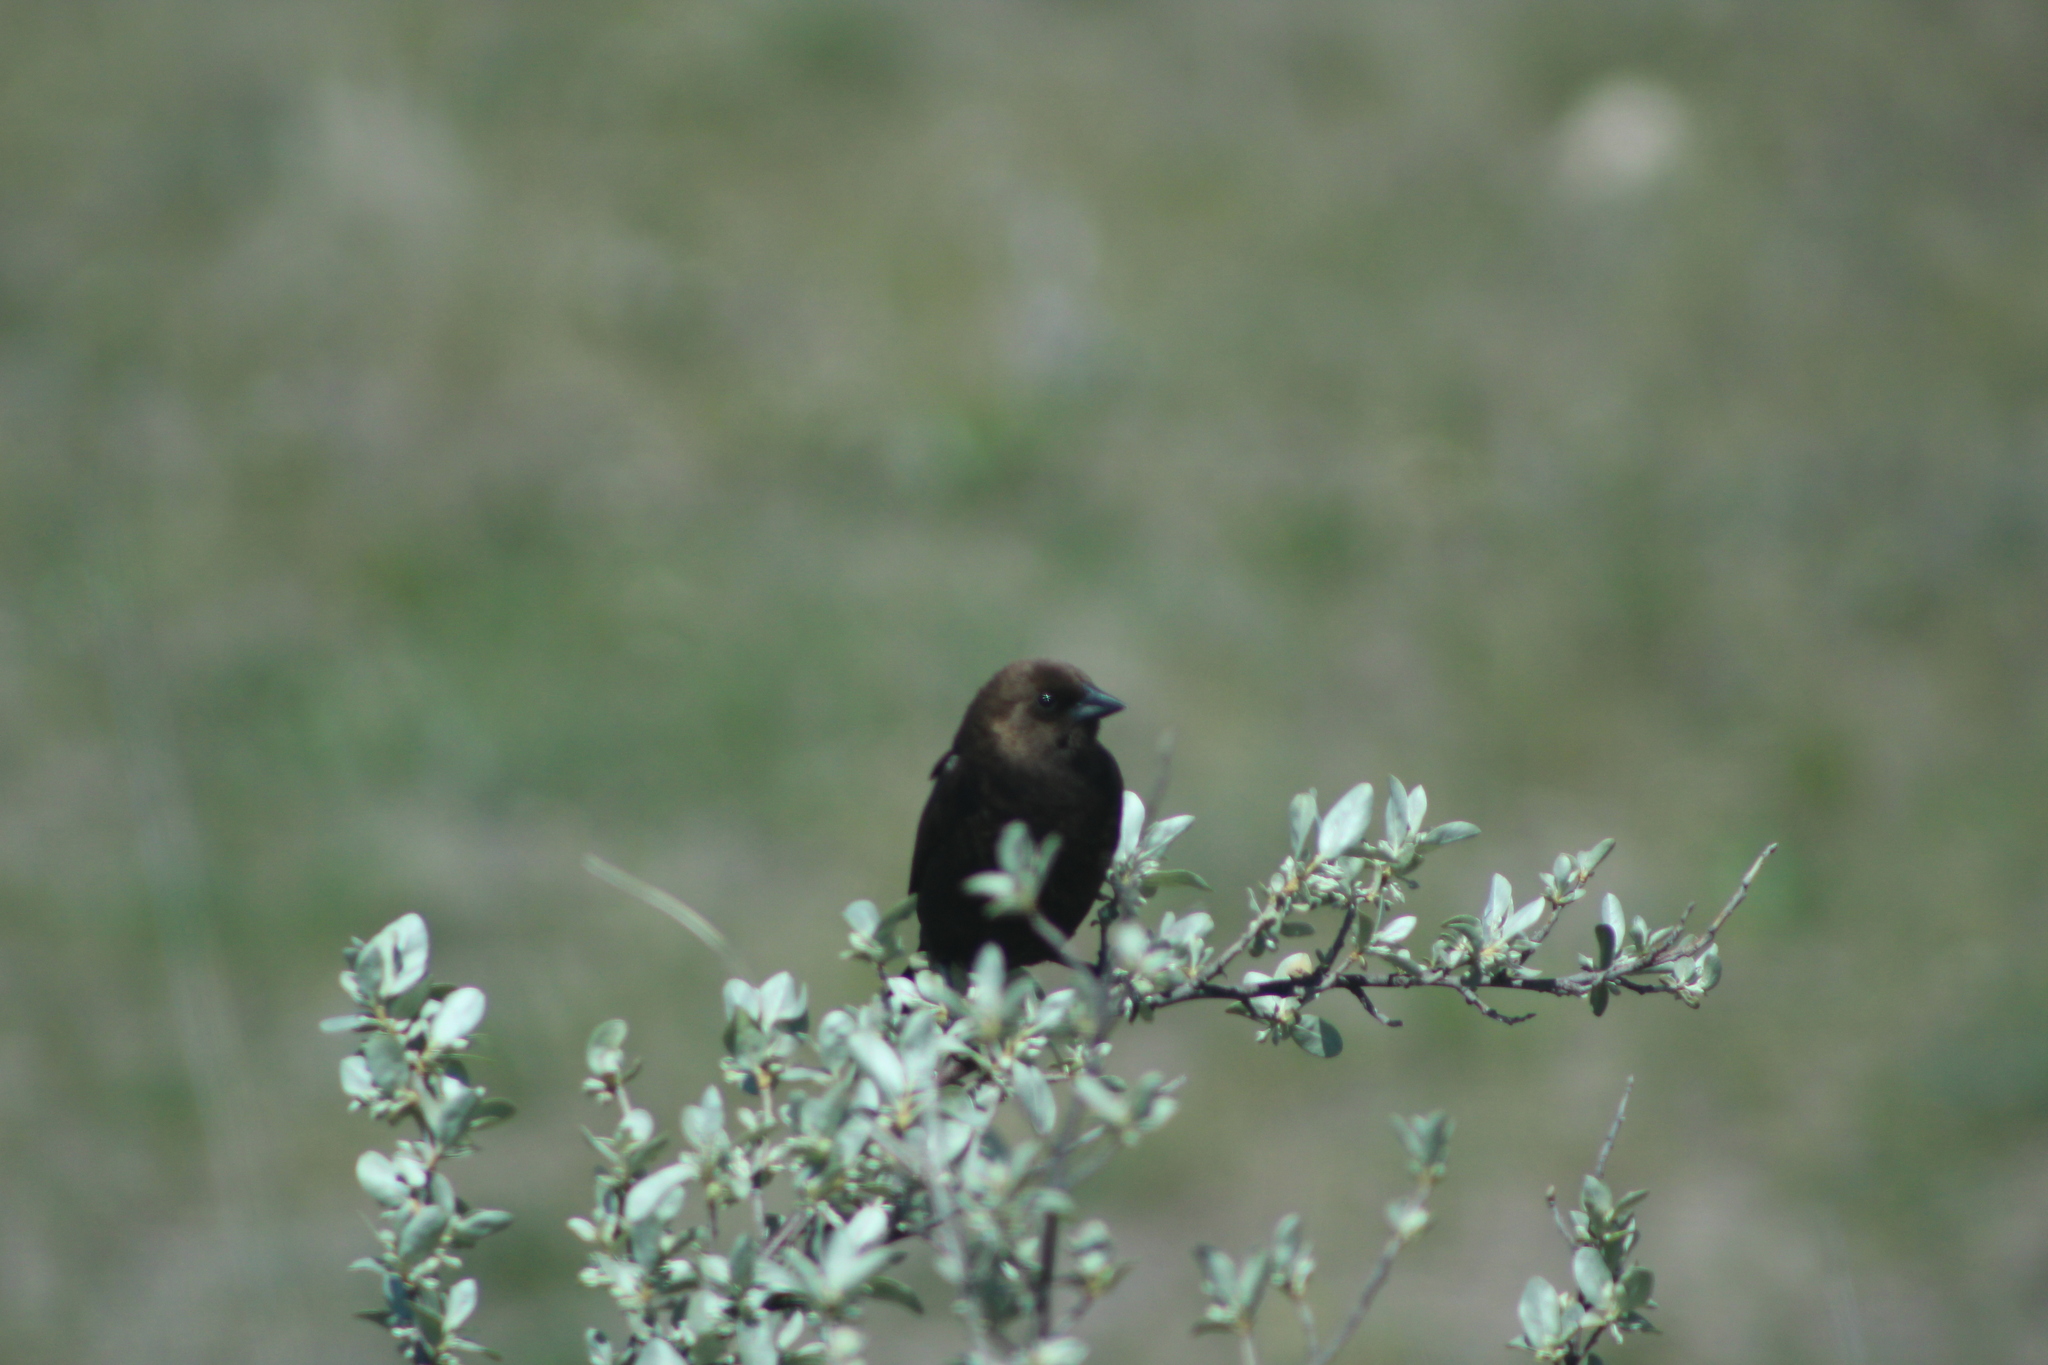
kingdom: Animalia
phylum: Chordata
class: Aves
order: Passeriformes
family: Icteridae
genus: Molothrus
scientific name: Molothrus ater
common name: Brown-headed cowbird
